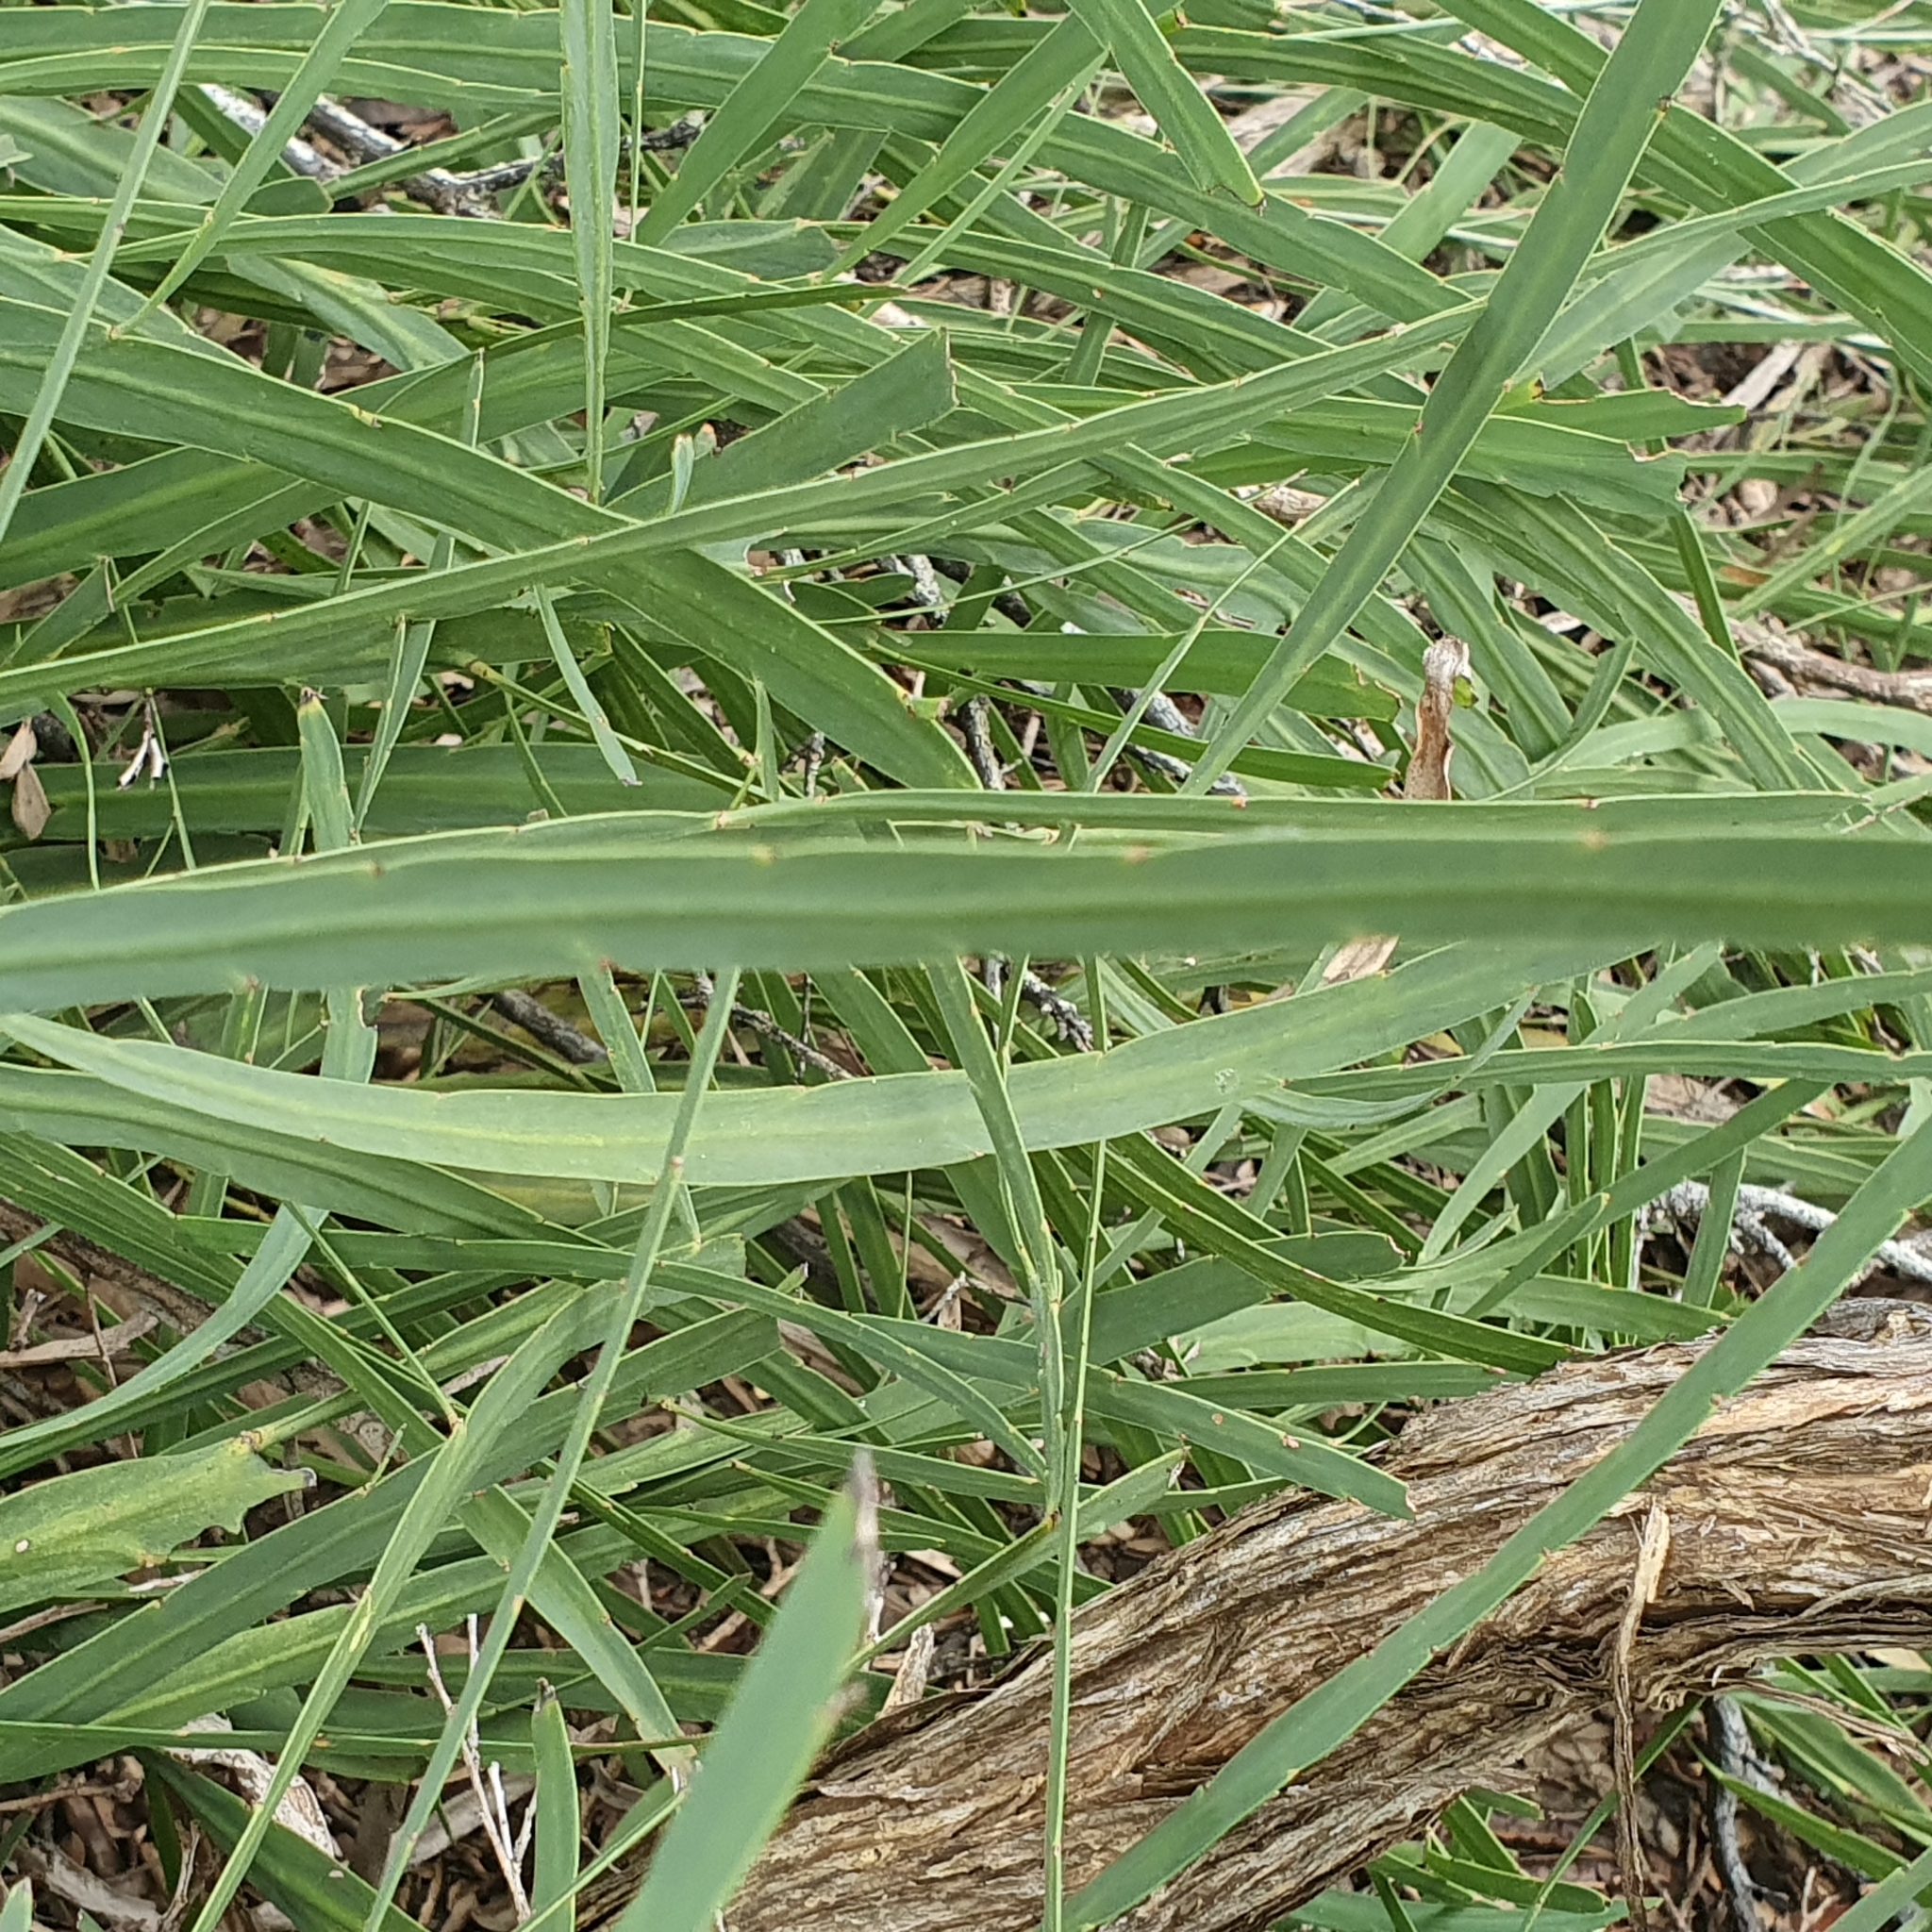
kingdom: Plantae
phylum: Tracheophyta
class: Magnoliopsida
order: Fabales
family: Fabaceae
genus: Bossiaea
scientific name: Bossiaea ensata
